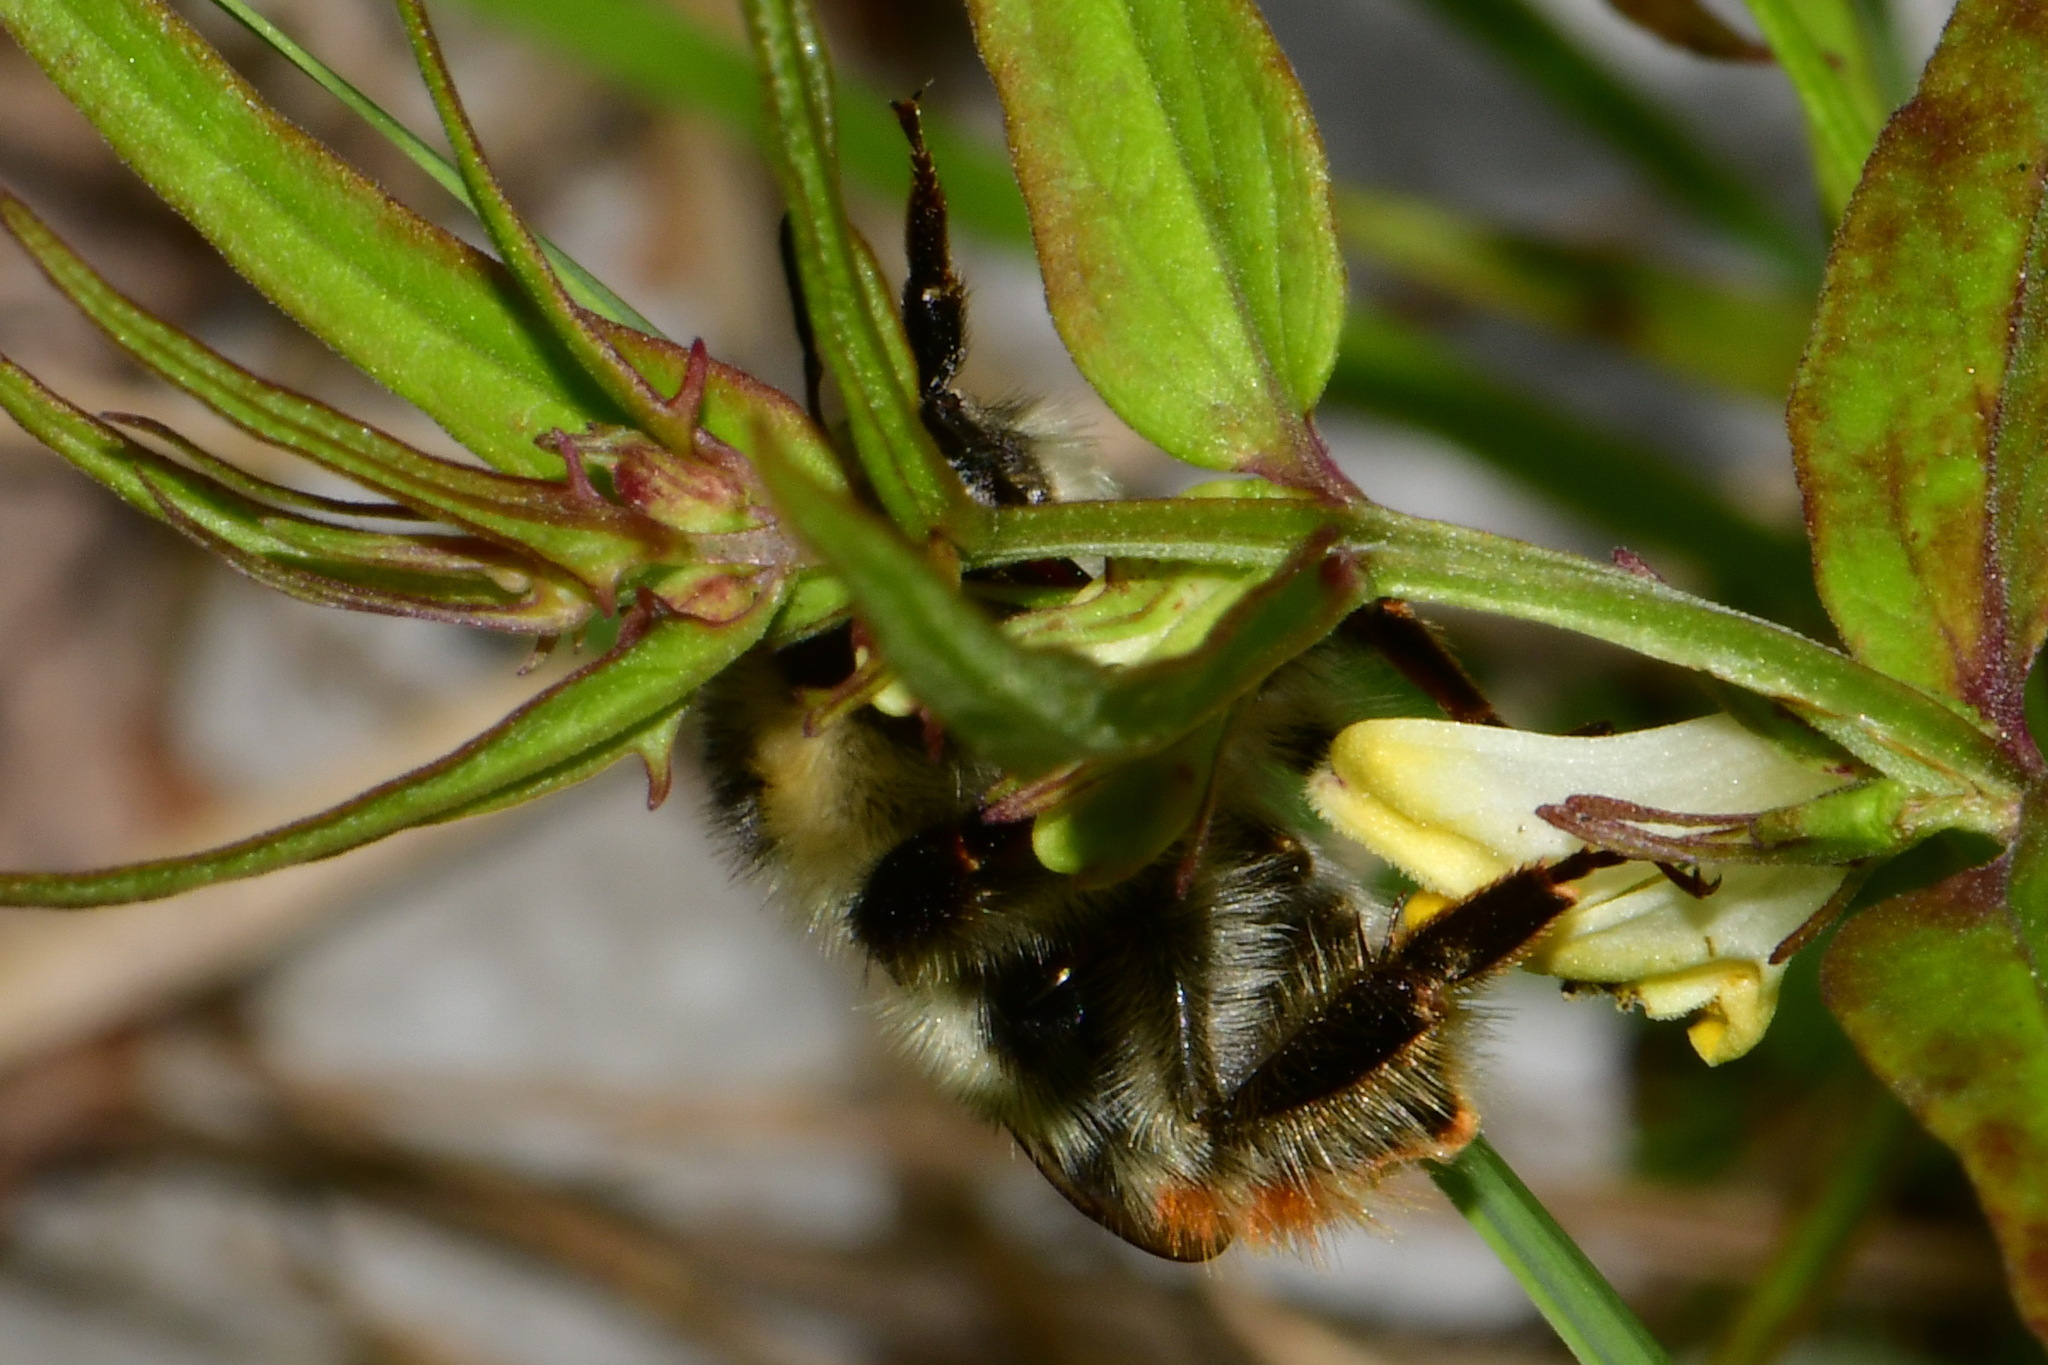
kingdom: Animalia
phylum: Arthropoda
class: Insecta
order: Hymenoptera
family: Apidae
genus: Bombus
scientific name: Bombus sylvarum
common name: Shrill carder bee
